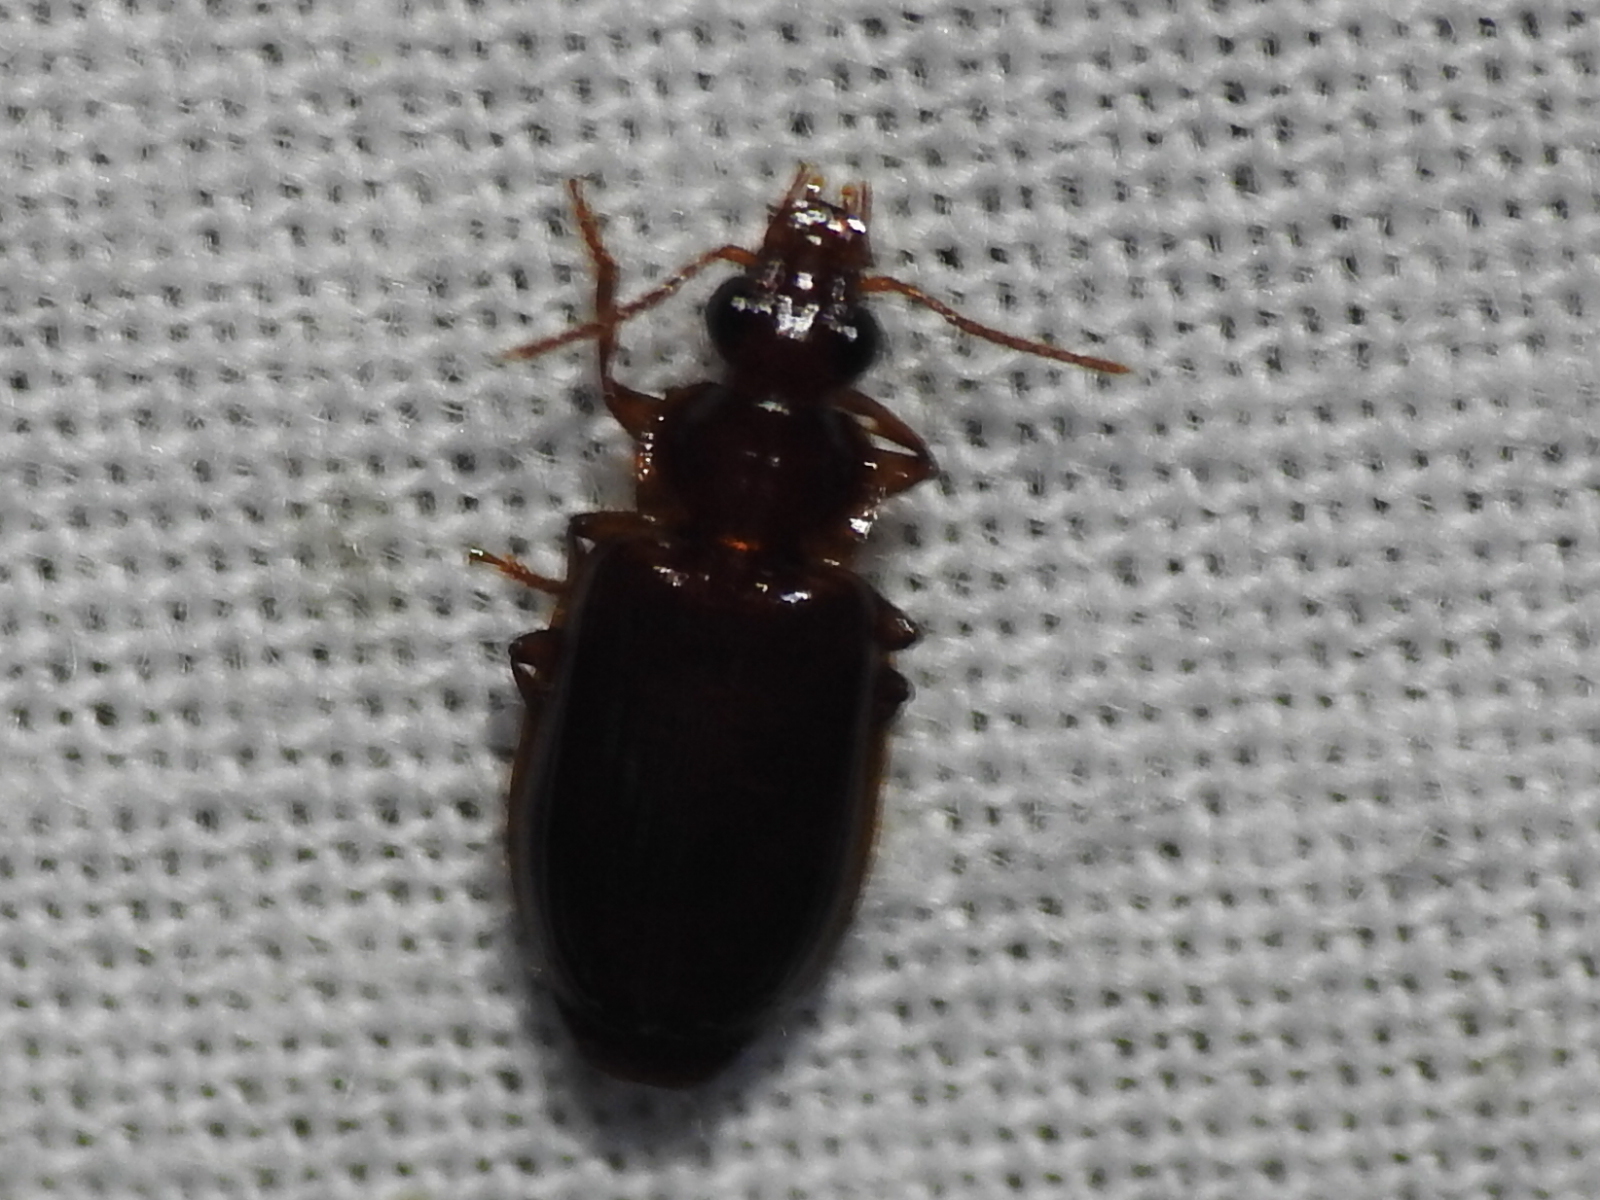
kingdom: Animalia
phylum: Arthropoda
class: Insecta
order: Coleoptera
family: Carabidae
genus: Plochionus
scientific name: Plochionus timidus
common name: Timid harp ground beetle
